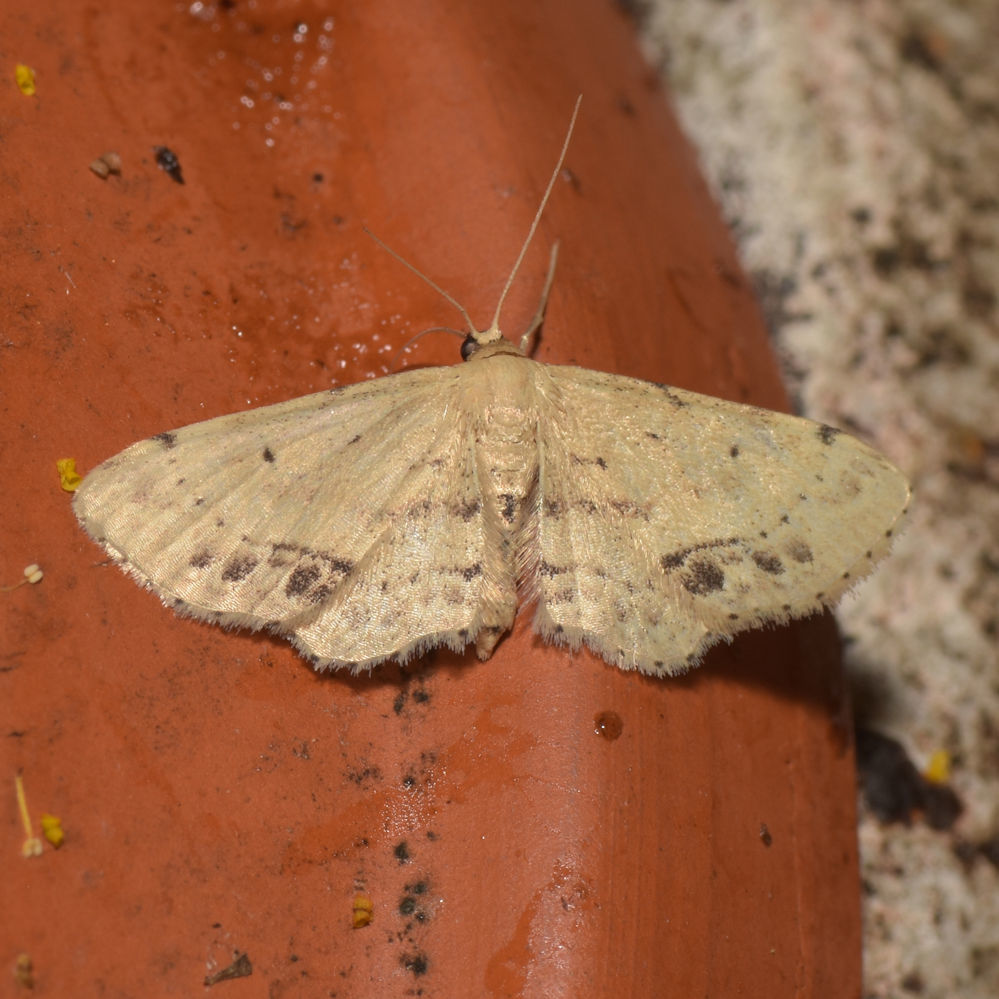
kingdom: Animalia
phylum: Arthropoda
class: Insecta
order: Lepidoptera
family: Geometridae
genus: Idaea
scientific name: Idaea dimidiata
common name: Single-dotted wave
